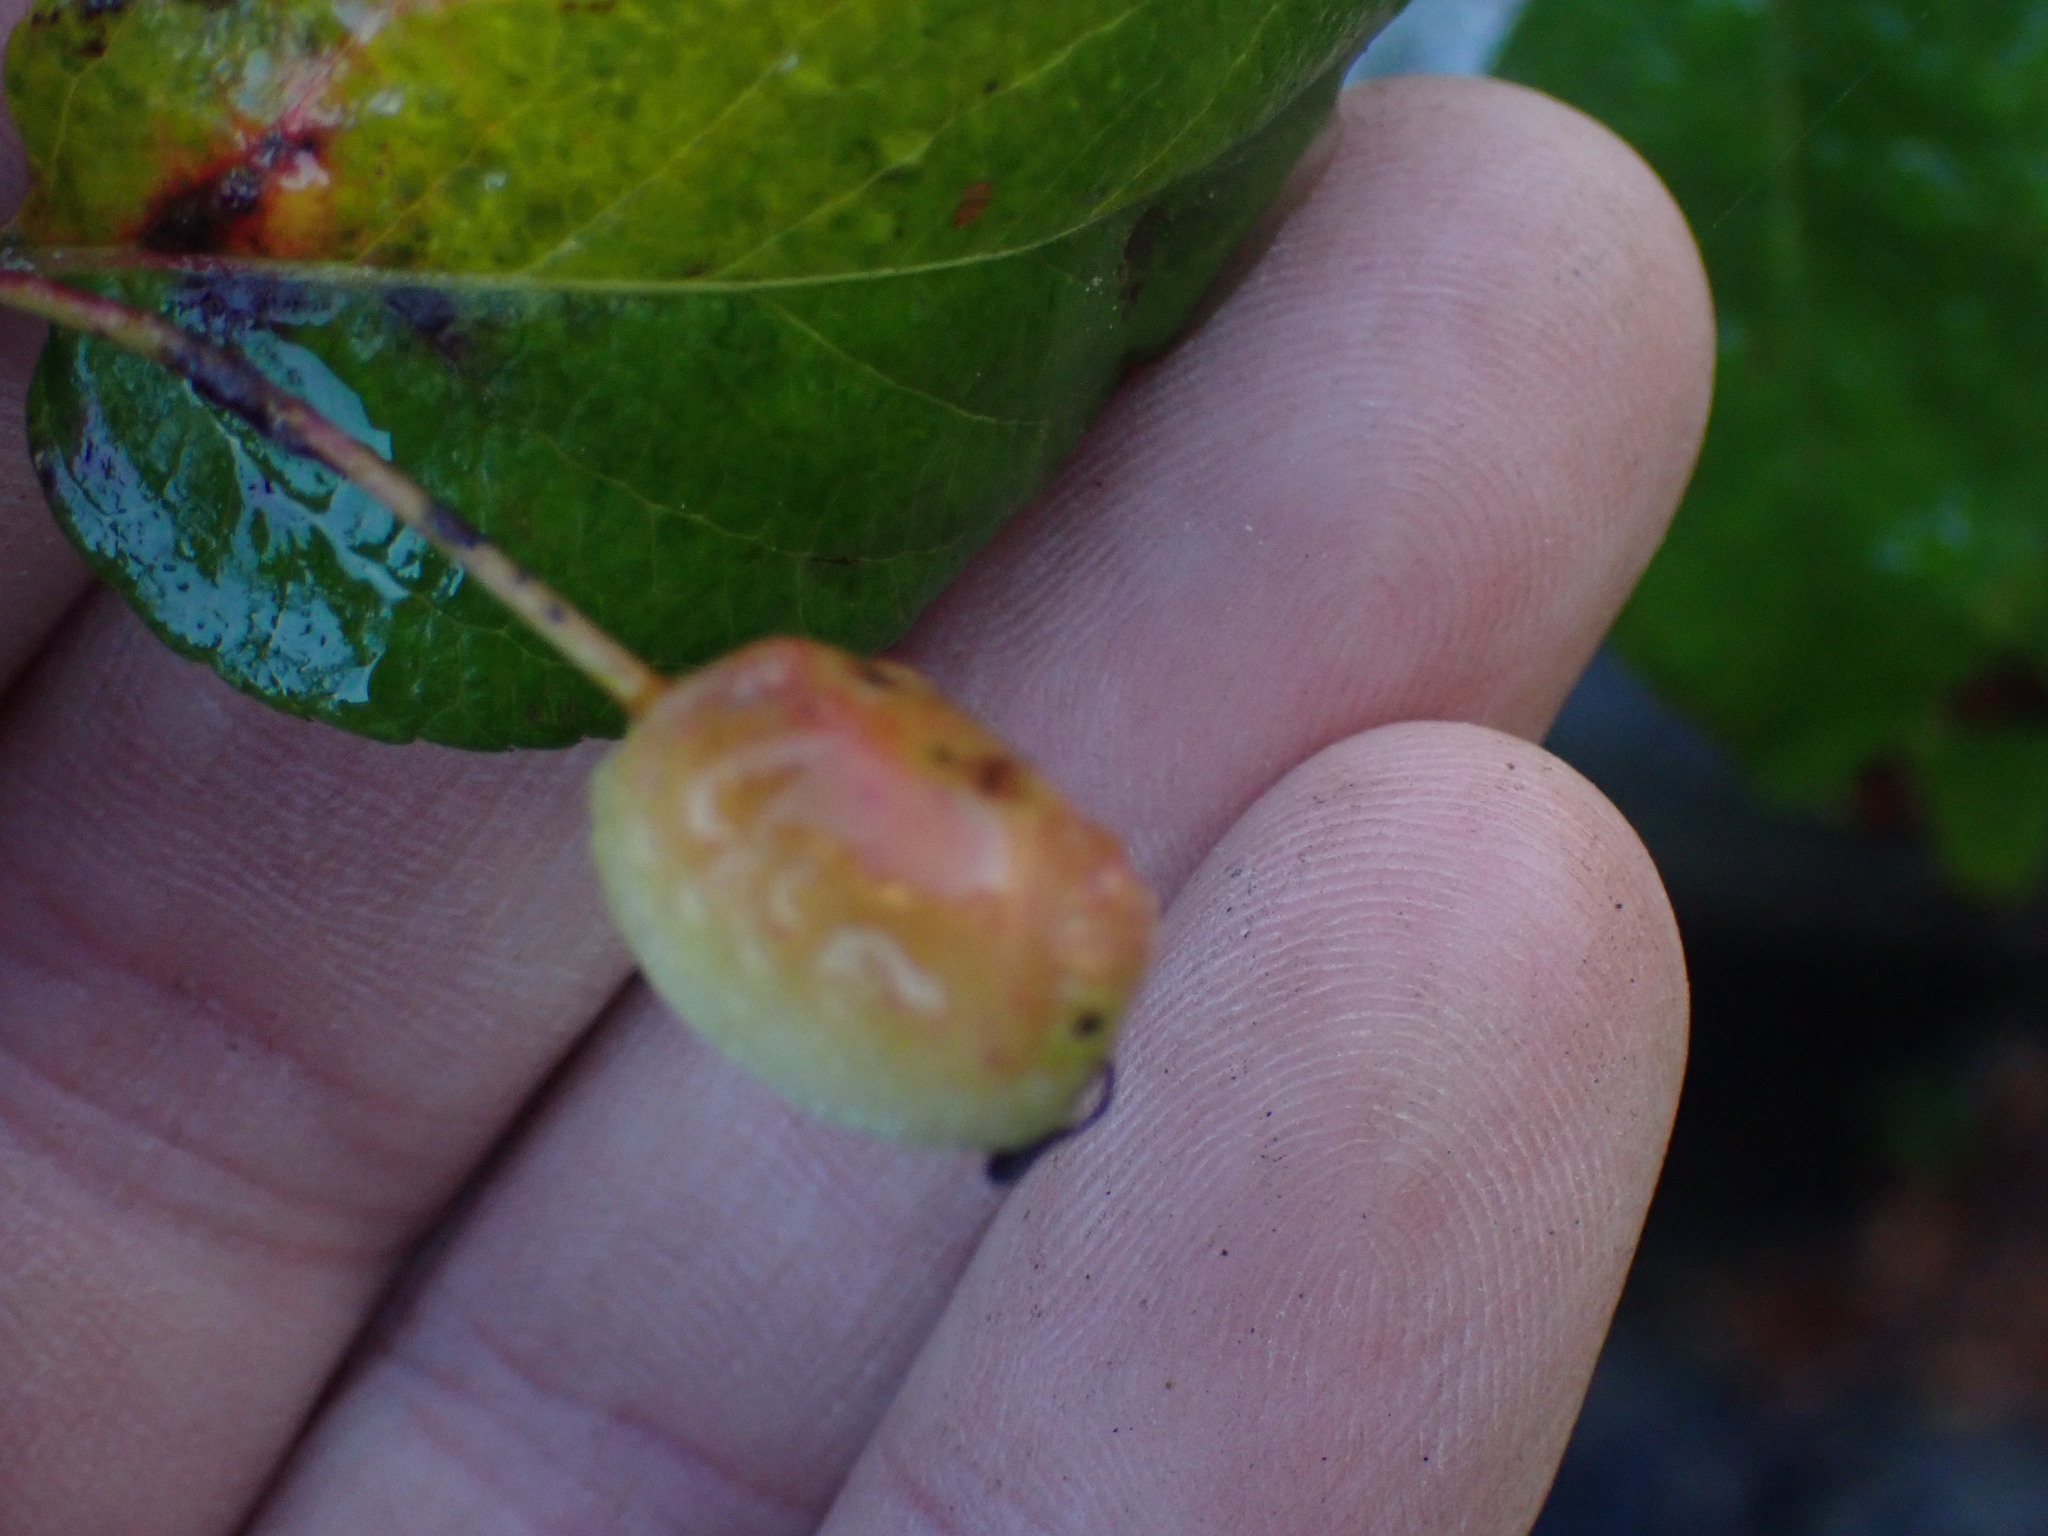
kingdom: Plantae
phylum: Tracheophyta
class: Magnoliopsida
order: Rosales
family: Rosaceae
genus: Malus
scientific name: Malus fusca
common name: Oregon crab apple
